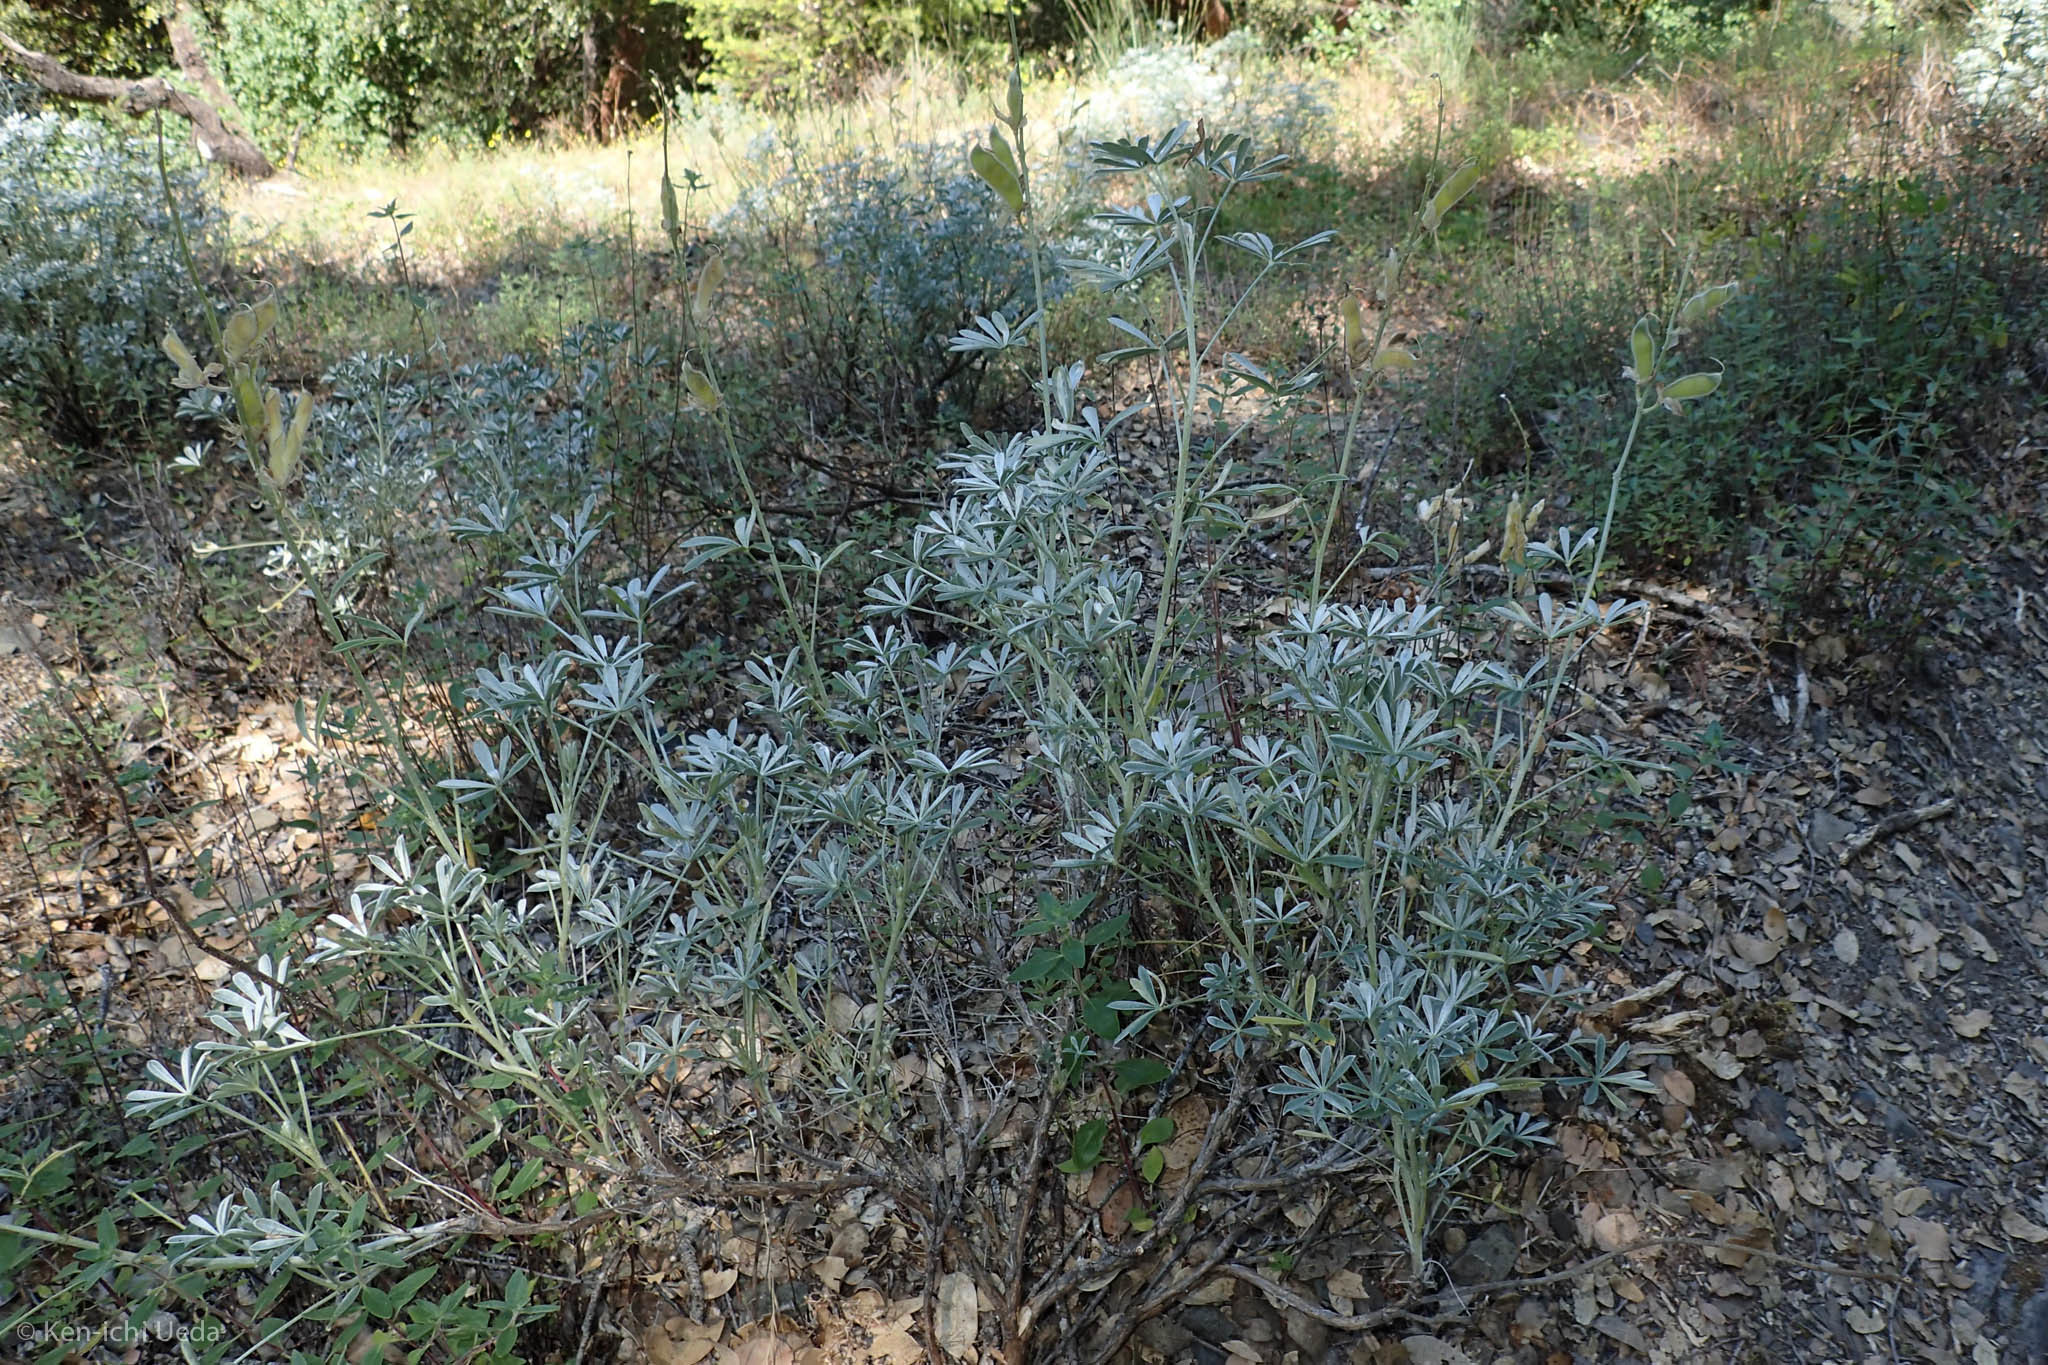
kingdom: Plantae
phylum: Tracheophyta
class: Magnoliopsida
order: Fabales
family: Fabaceae
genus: Lupinus
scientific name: Lupinus albifrons
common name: Foothill lupine
